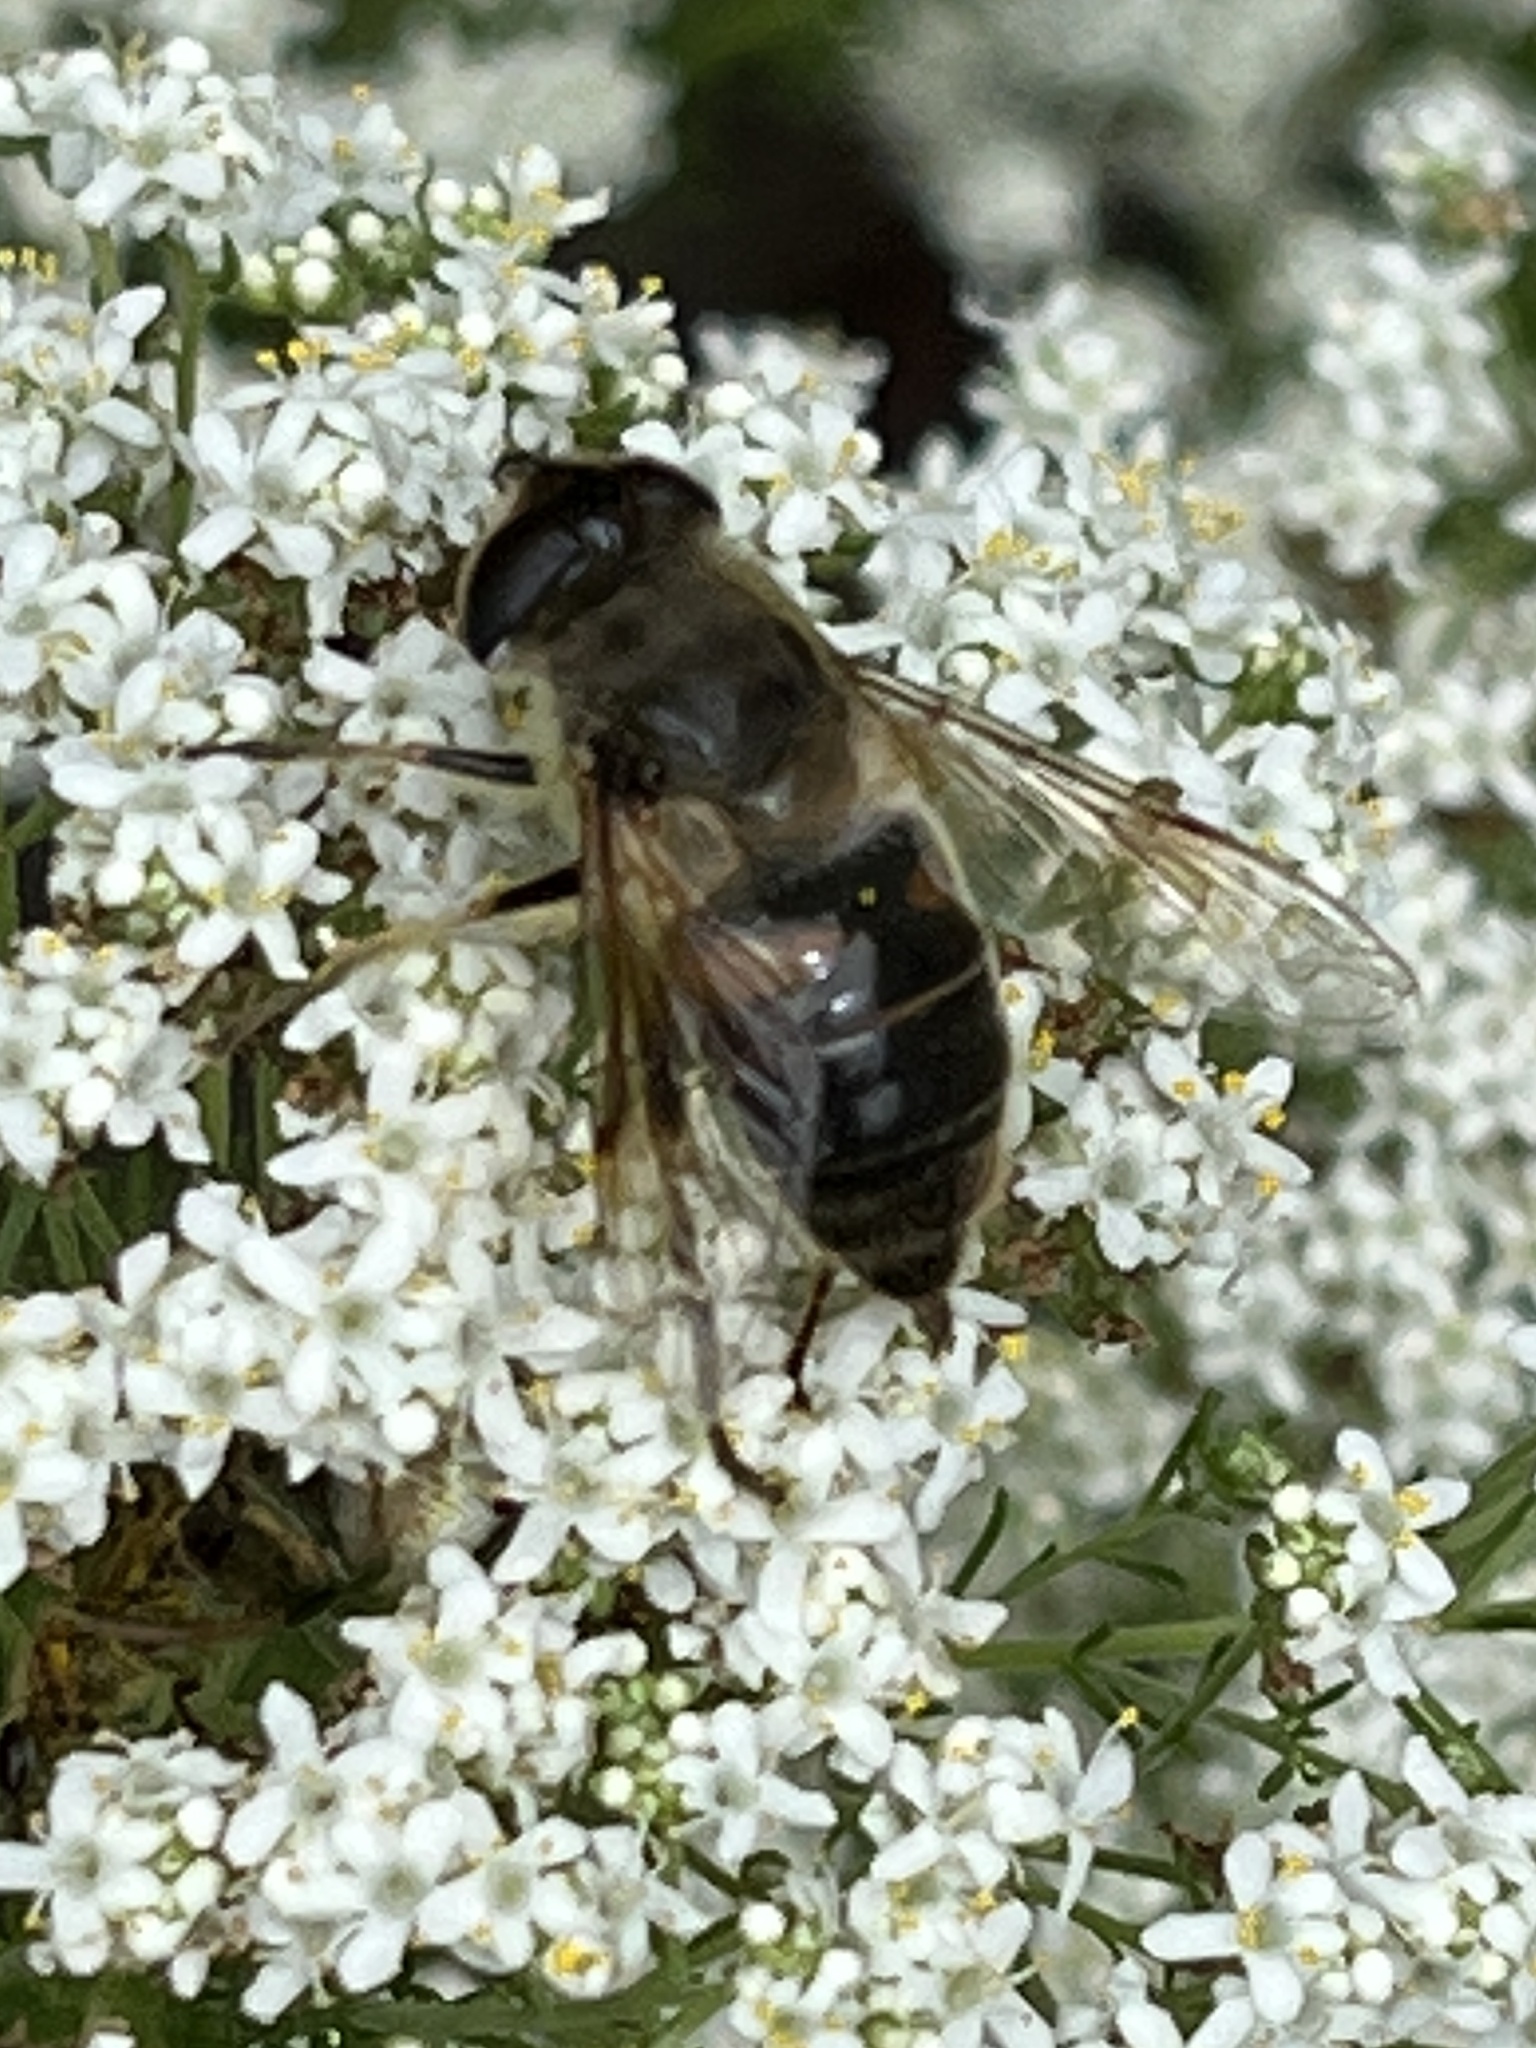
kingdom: Animalia
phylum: Arthropoda
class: Insecta
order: Diptera
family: Syrphidae
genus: Eristalis
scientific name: Eristalis tenax
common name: Drone fly
